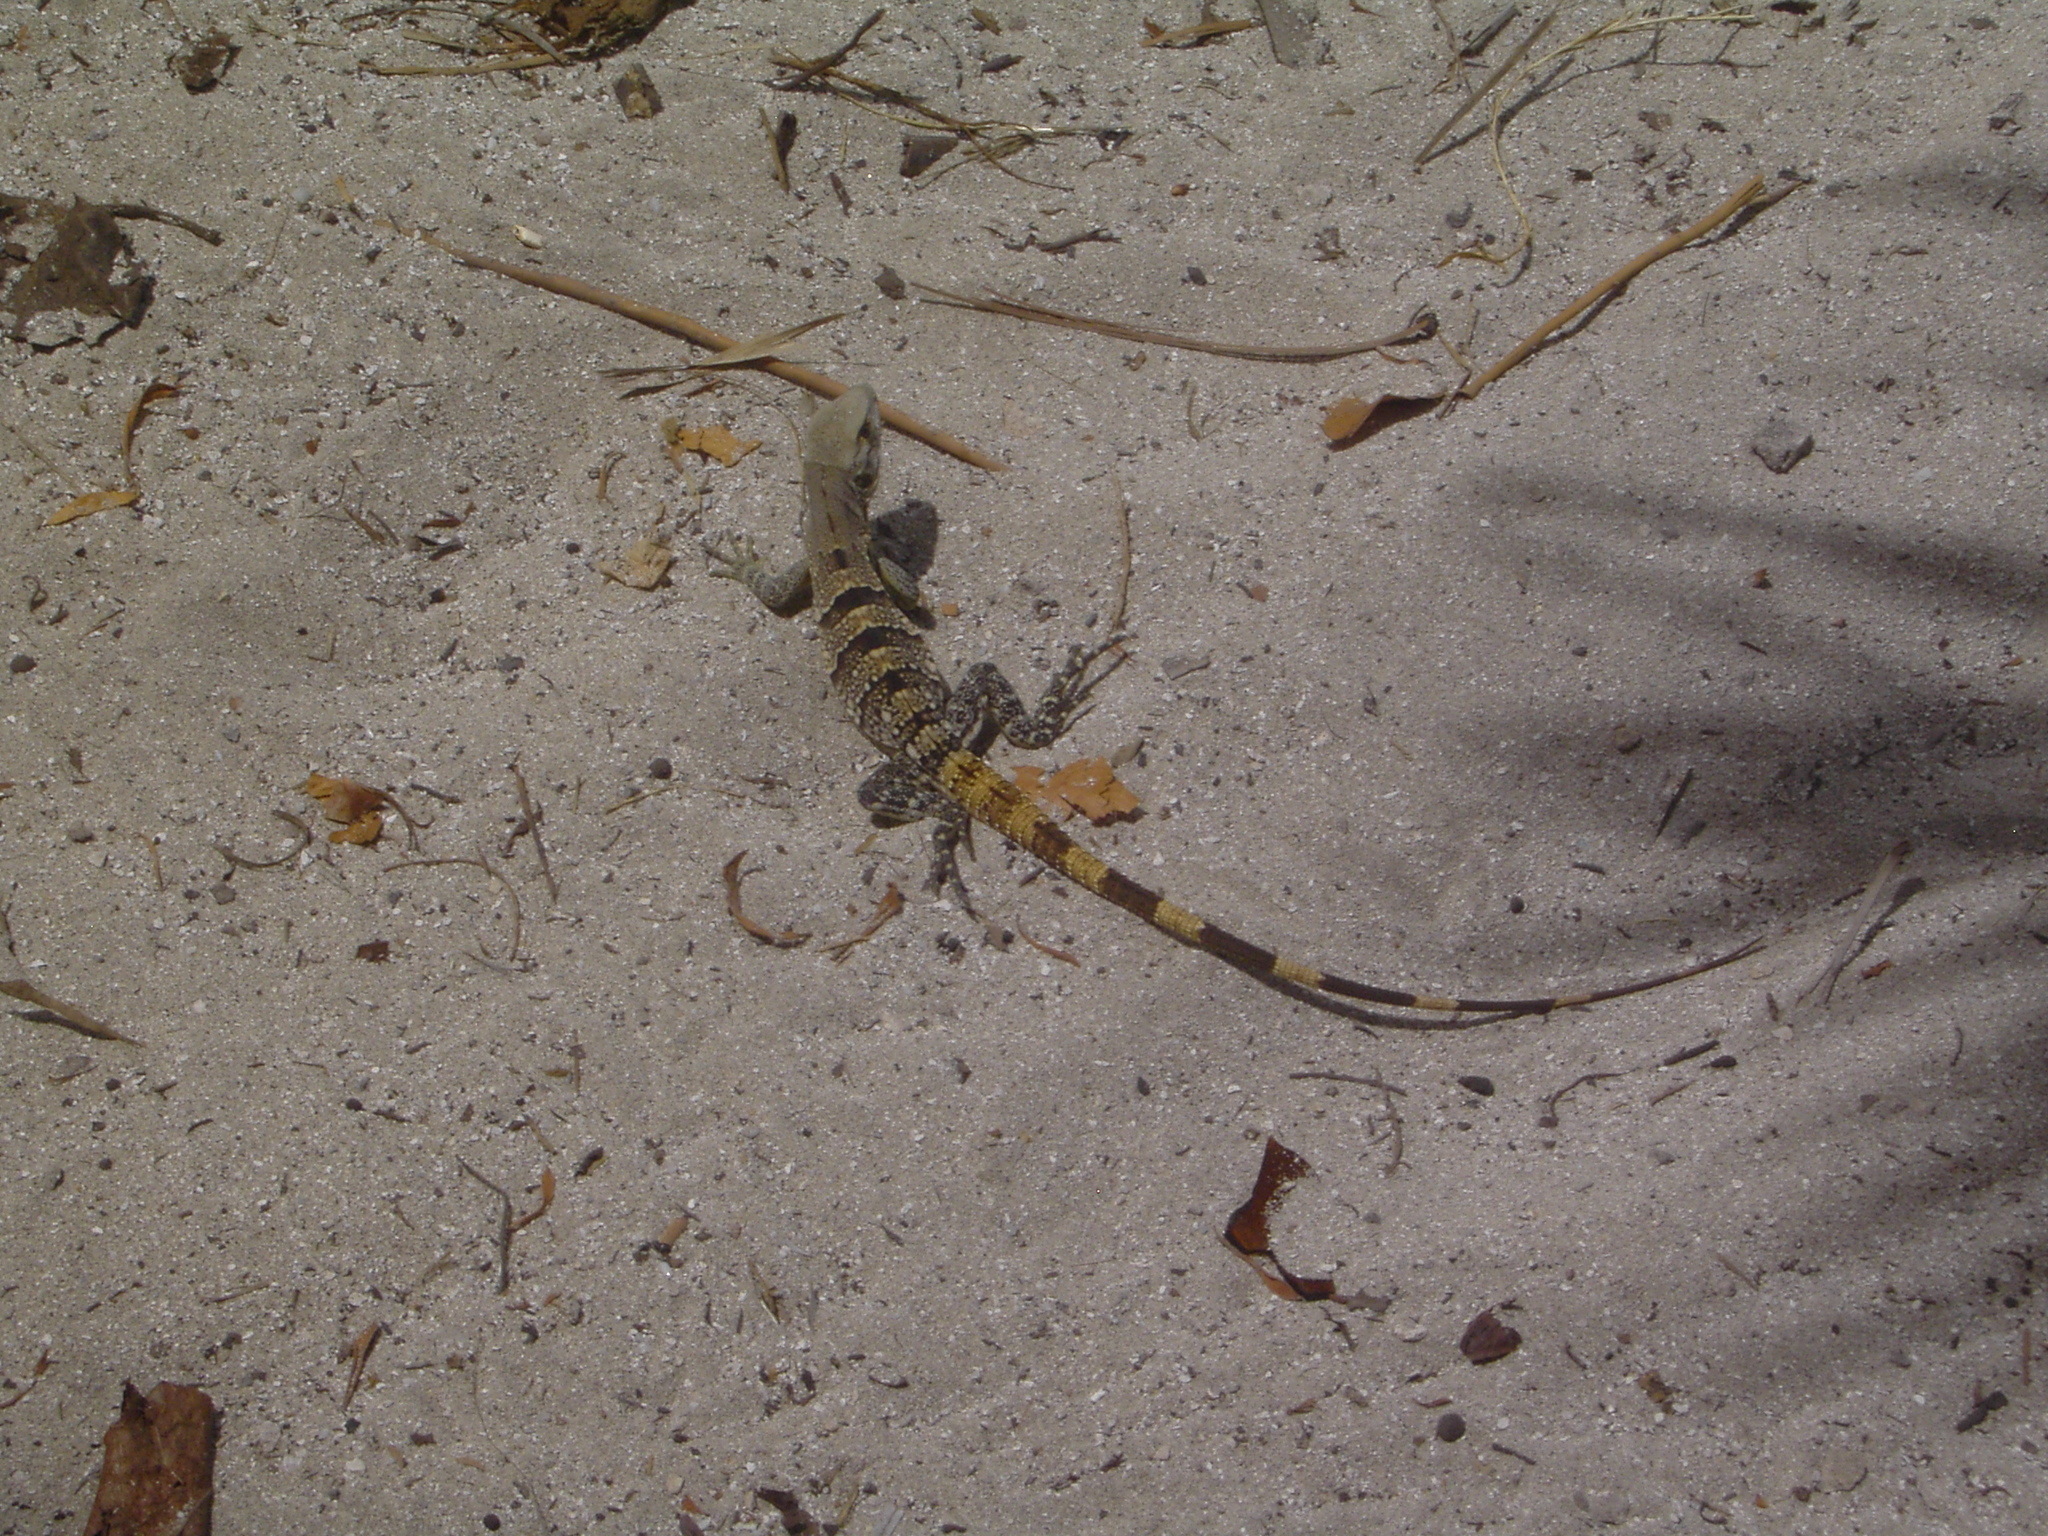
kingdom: Animalia
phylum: Chordata
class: Squamata
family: Iguanidae
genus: Ctenosaura
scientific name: Ctenosaura similis
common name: Black spiny-tailed iguana
